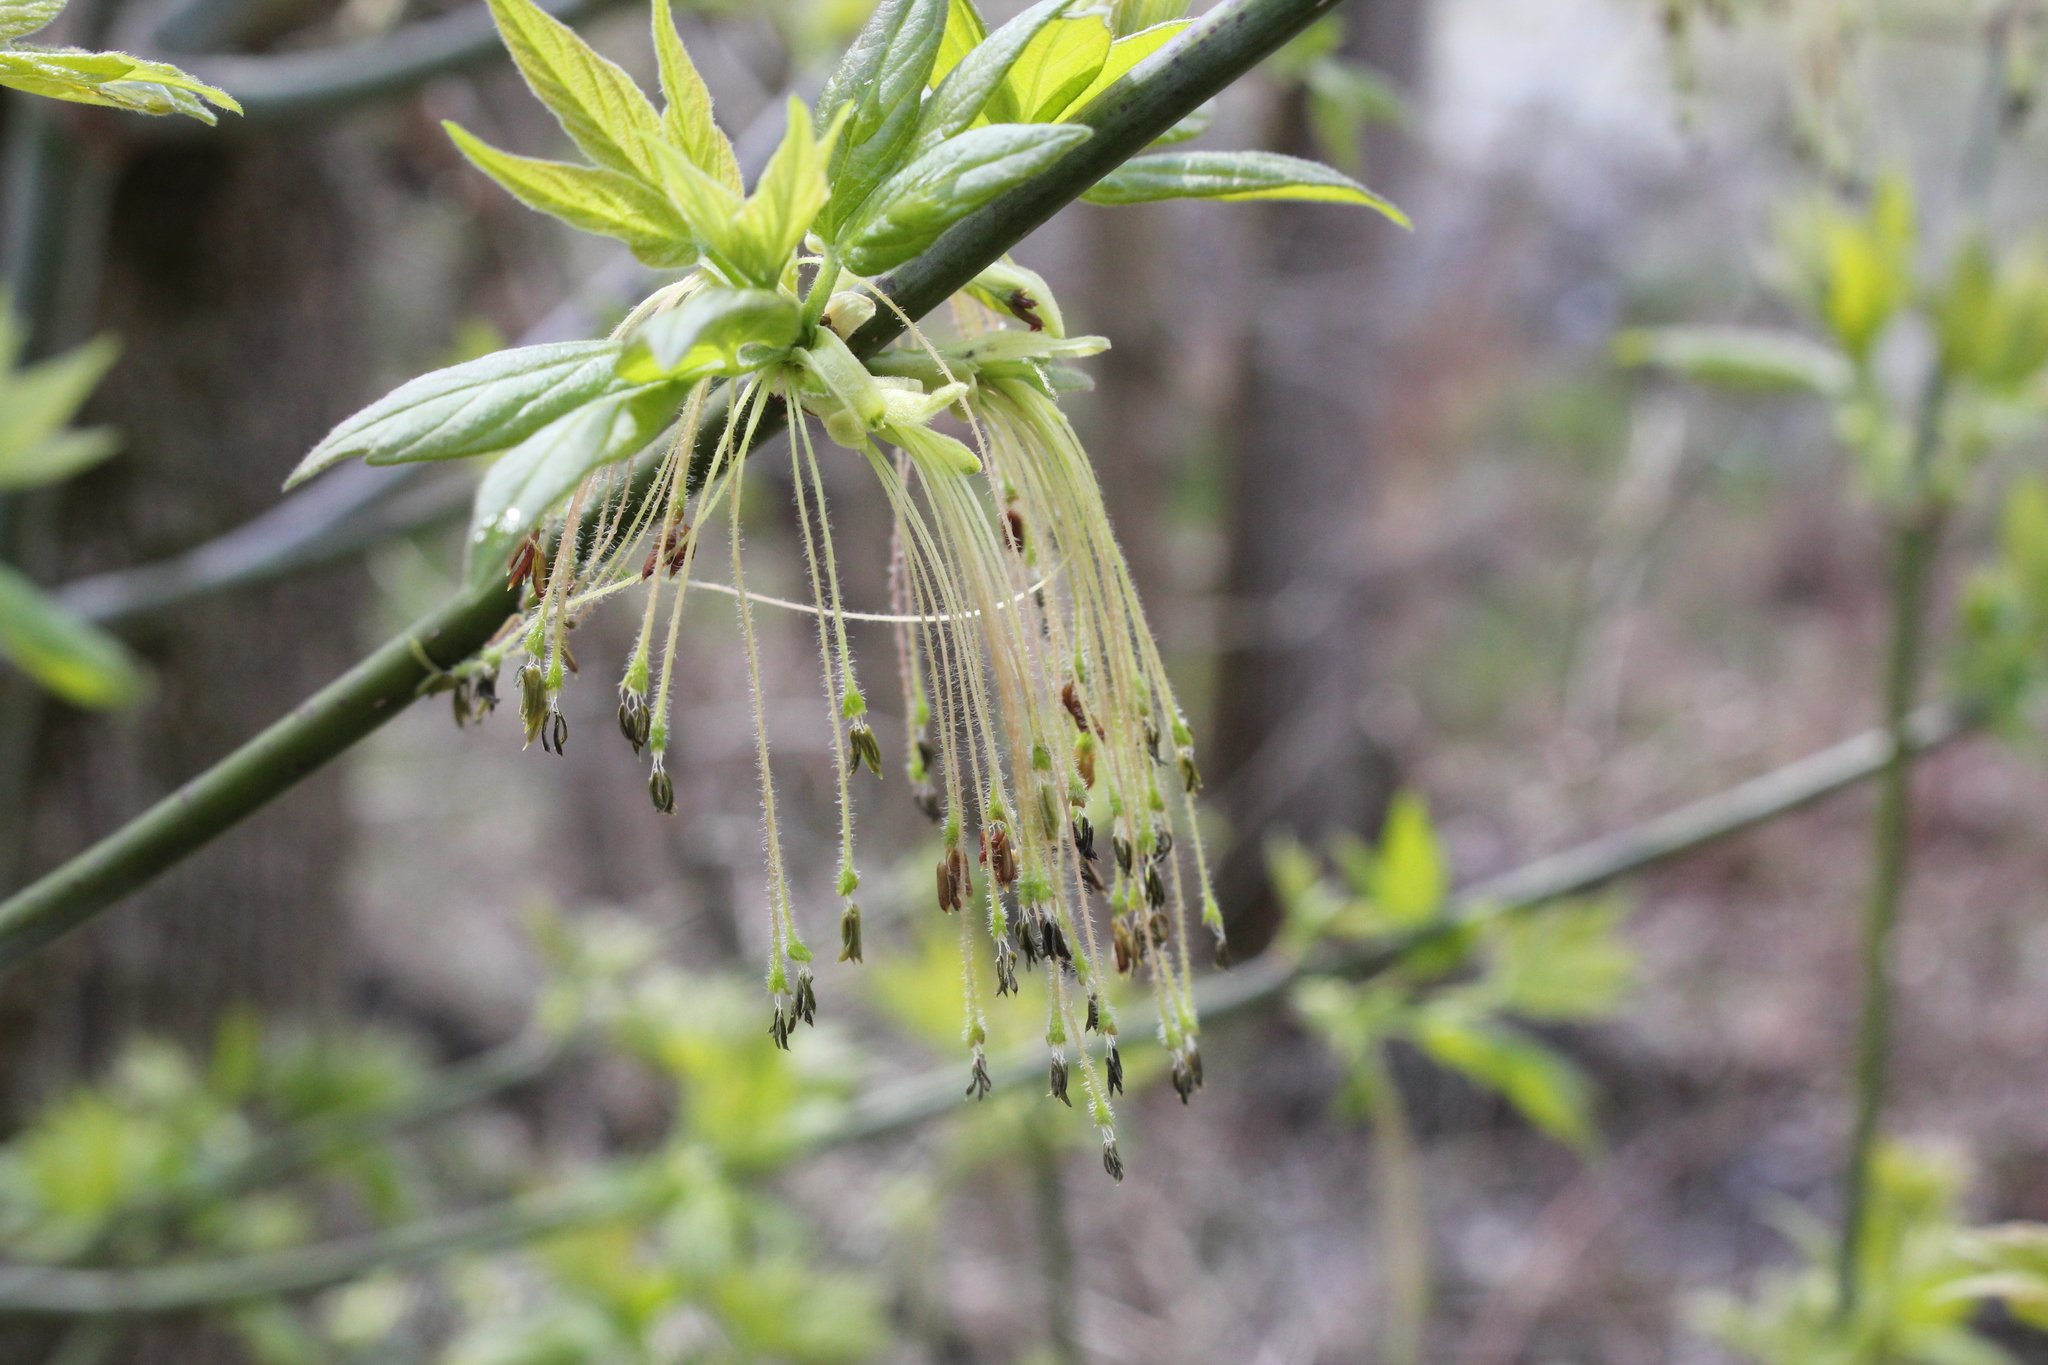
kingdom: Plantae
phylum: Tracheophyta
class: Magnoliopsida
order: Sapindales
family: Sapindaceae
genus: Acer
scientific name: Acer negundo
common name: Ashleaf maple
